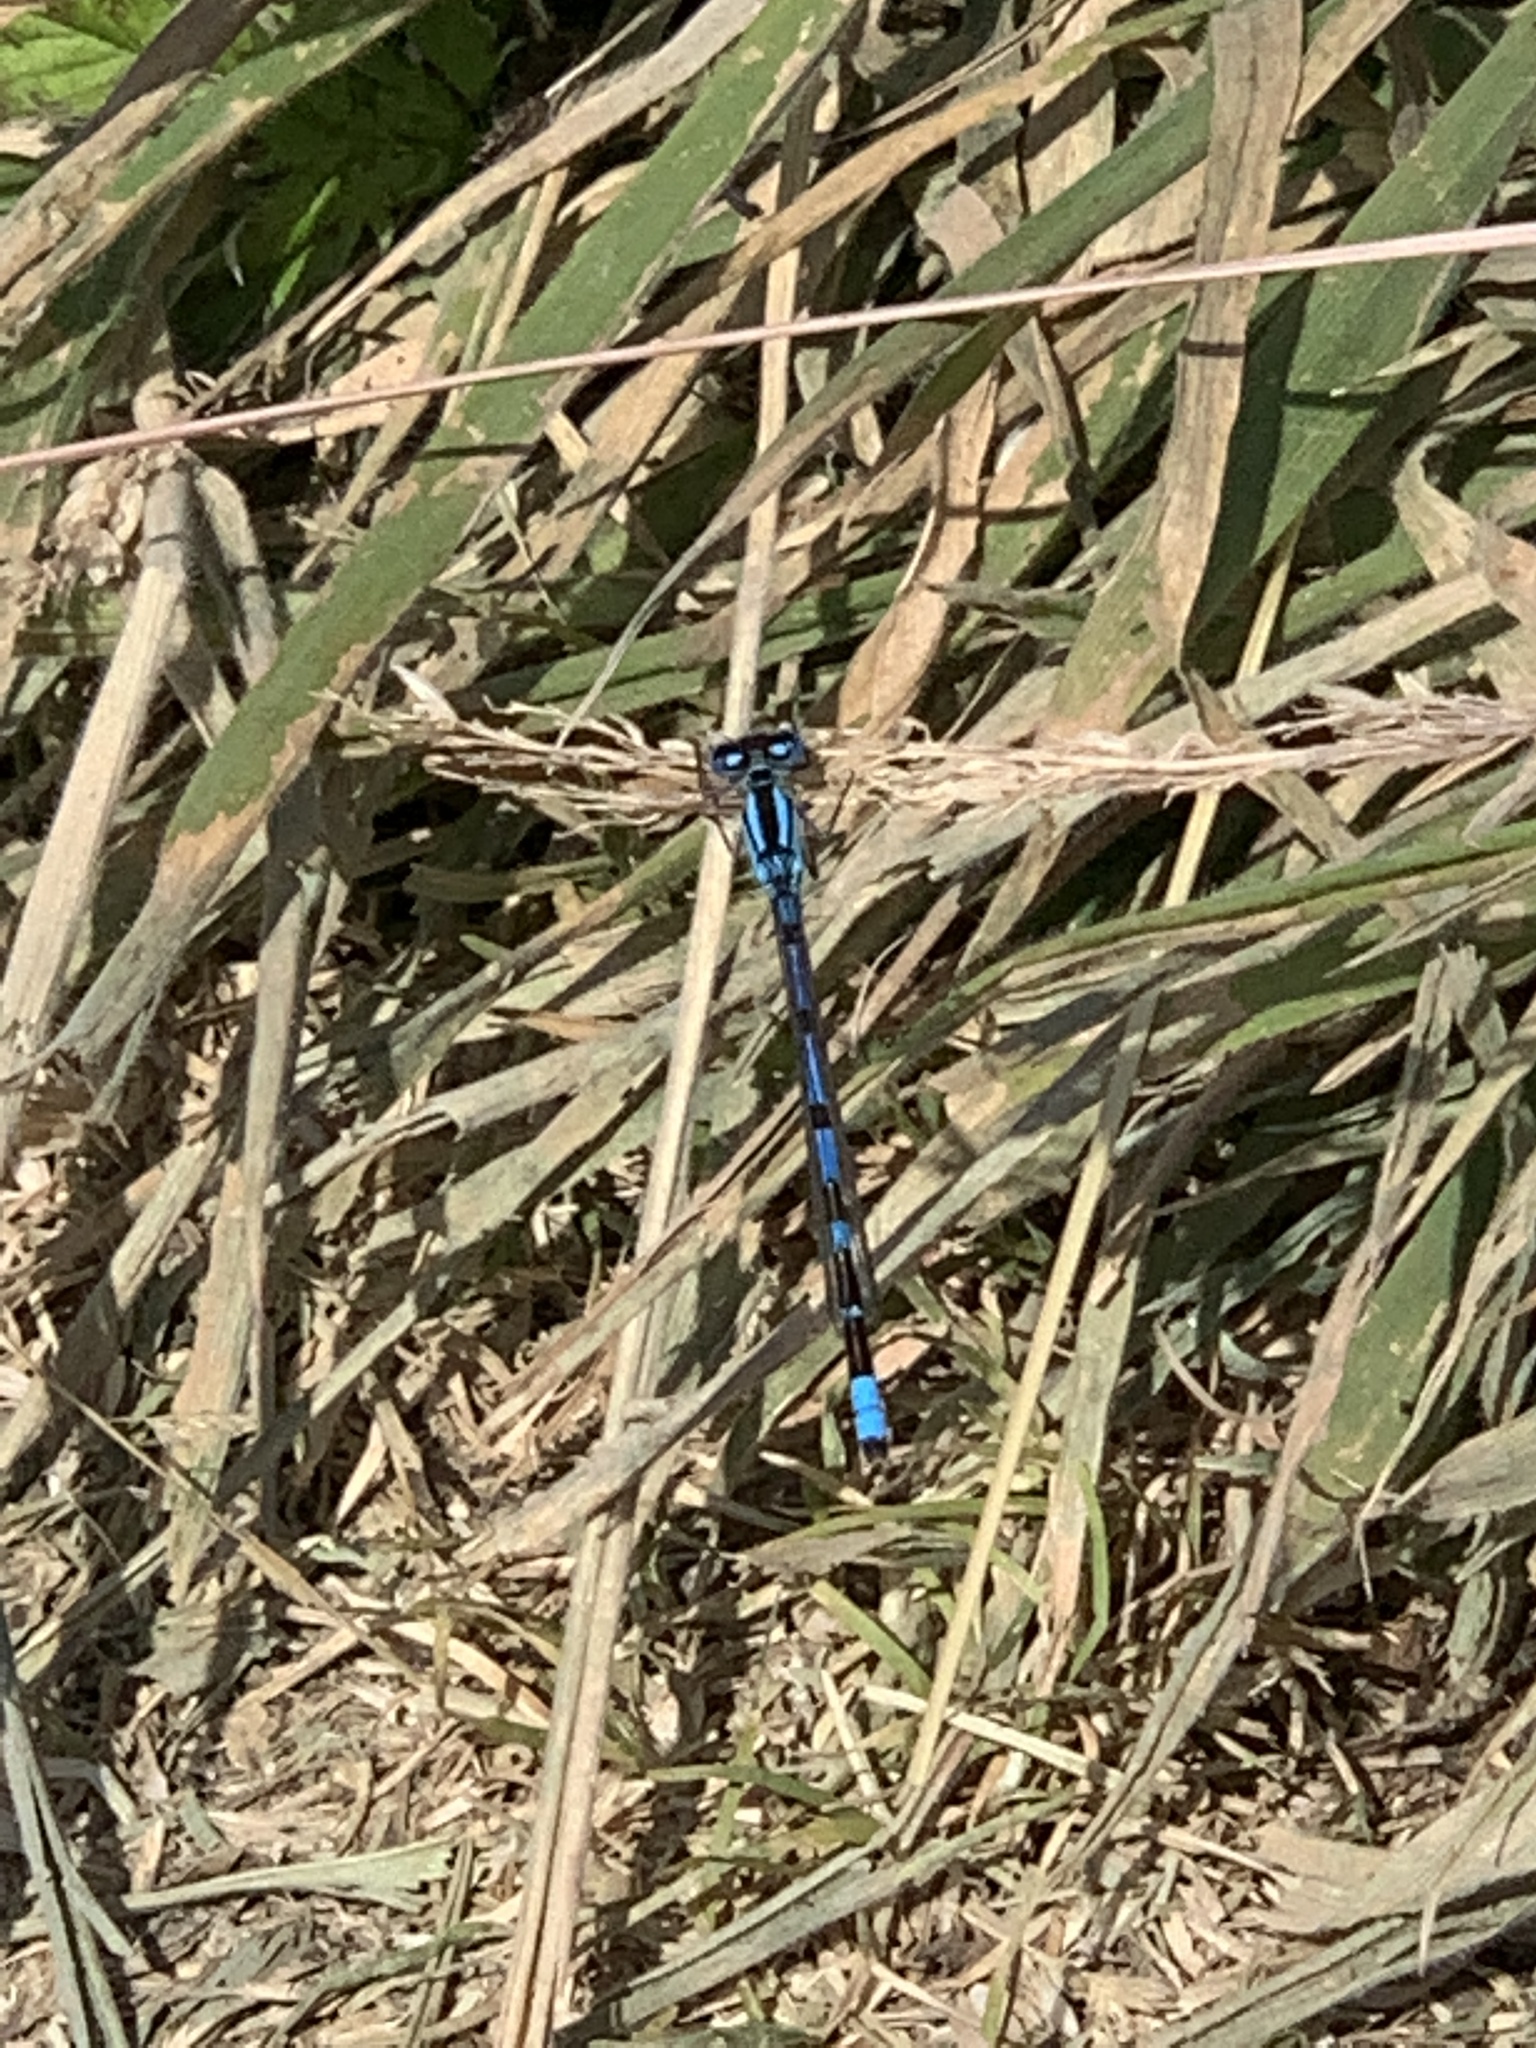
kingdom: Animalia
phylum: Arthropoda
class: Insecta
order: Odonata
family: Coenagrionidae
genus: Enallagma
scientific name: Enallagma cyathigerum
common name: Common blue damselfly
